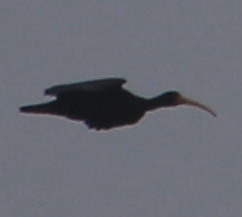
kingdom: Animalia
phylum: Chordata
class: Aves
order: Pelecaniformes
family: Threskiornithidae
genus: Phimosus
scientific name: Phimosus infuscatus
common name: Bare-faced ibis
